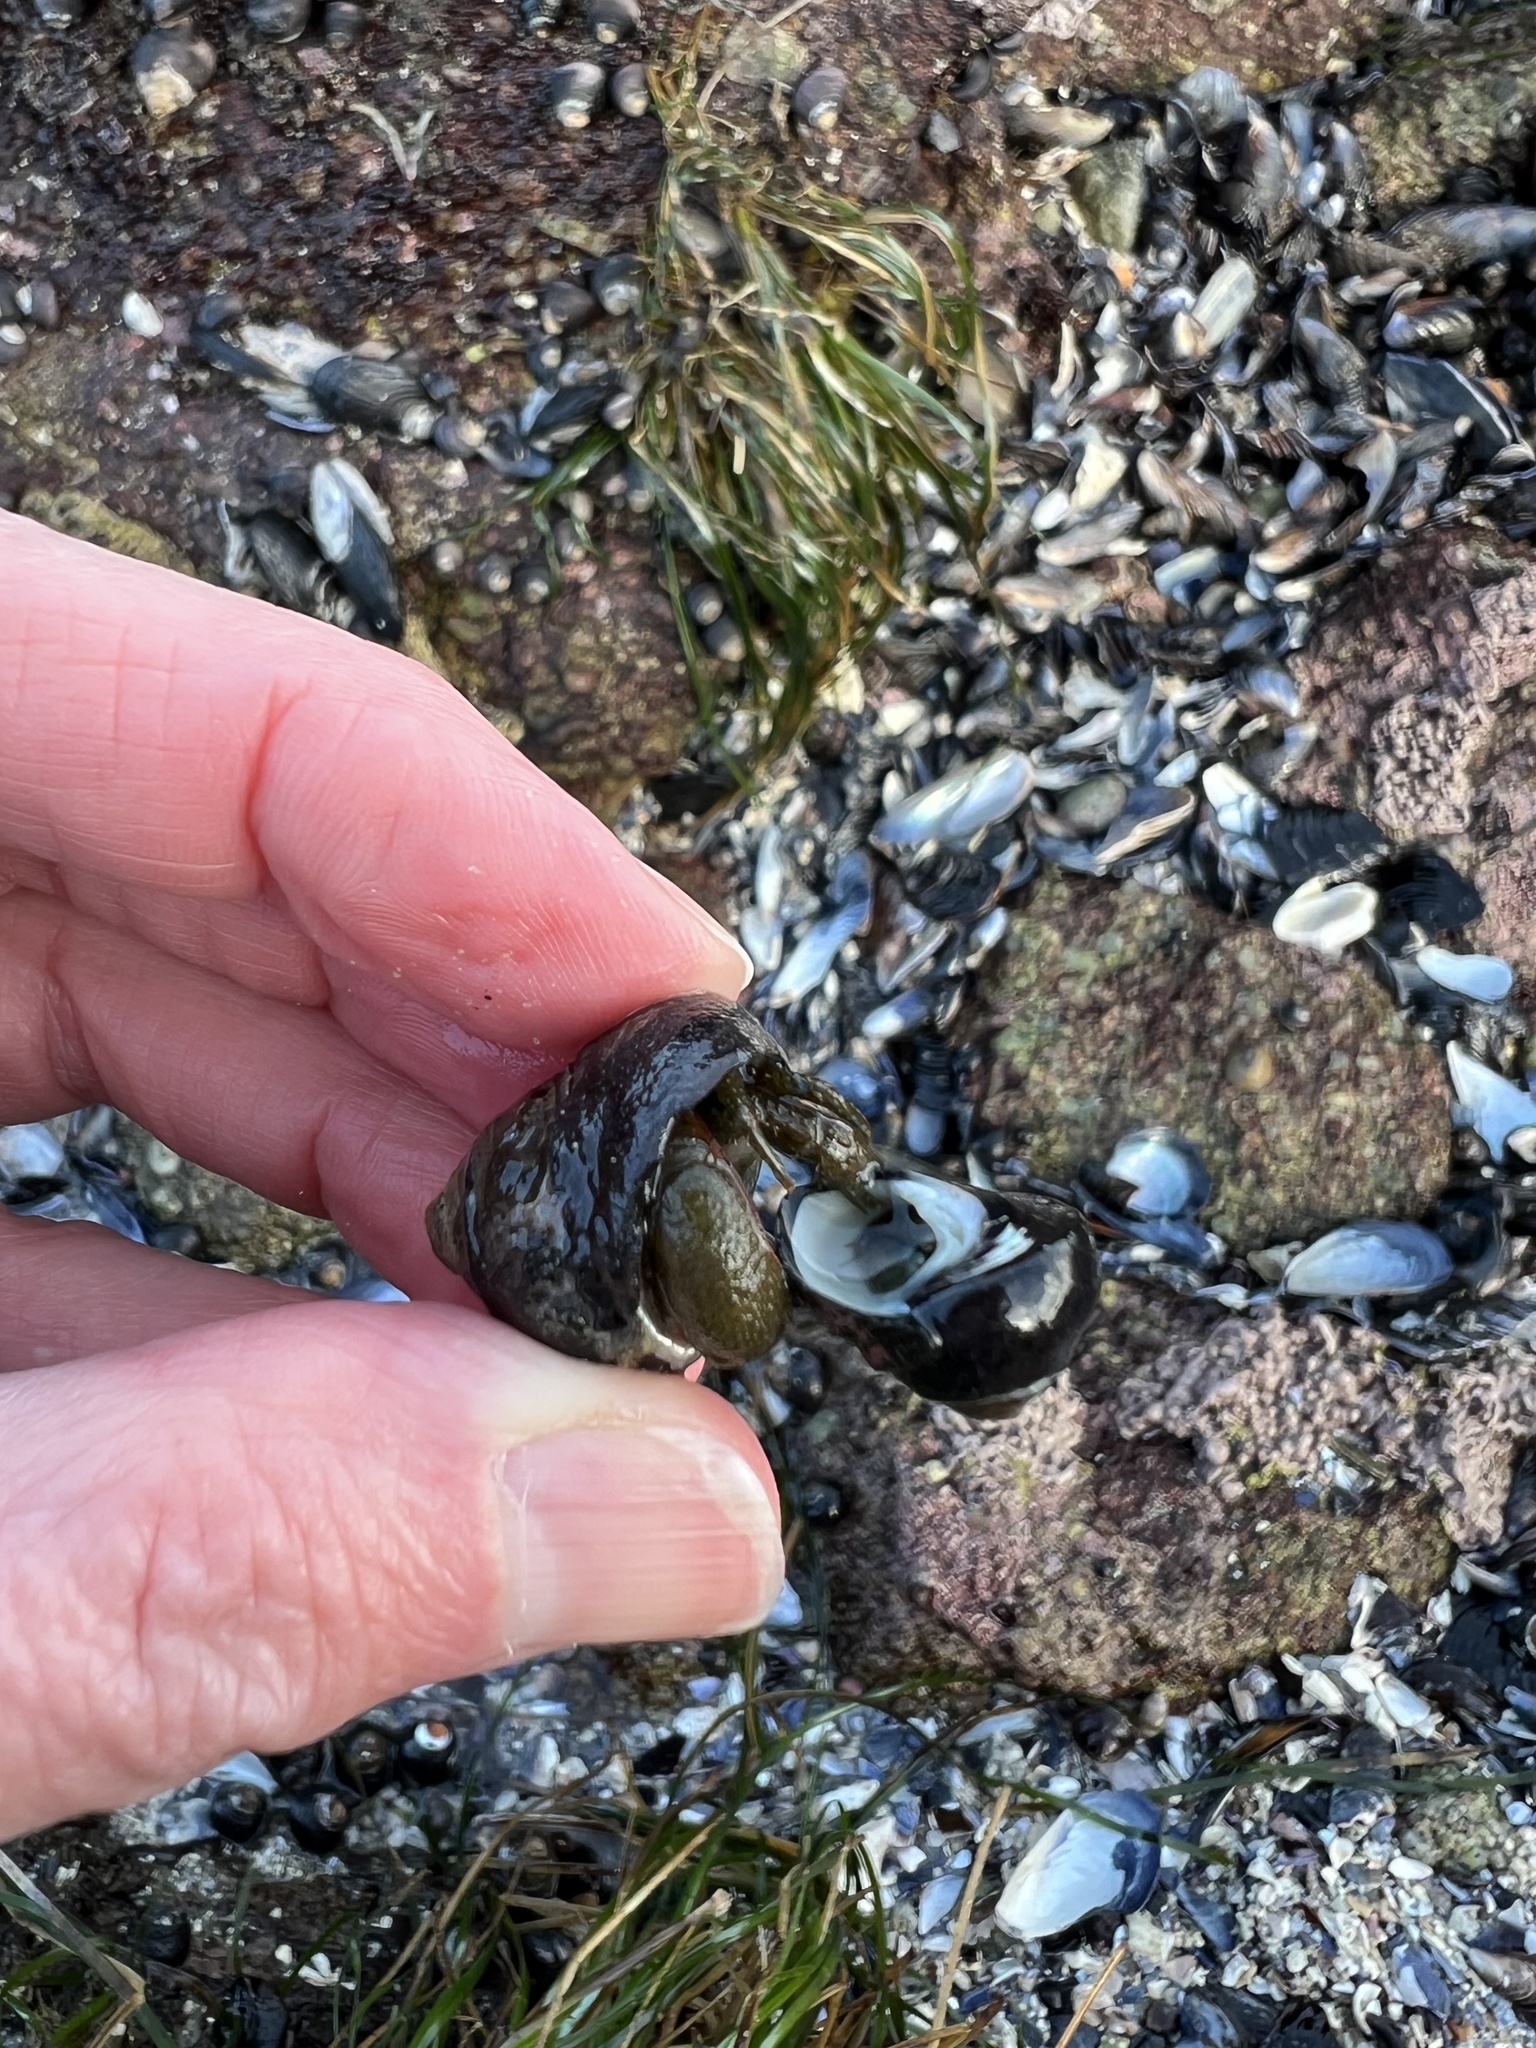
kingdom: Animalia
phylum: Arthropoda
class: Malacostraca
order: Decapoda
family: Paguridae
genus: Pagurus
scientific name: Pagurus samuelis
